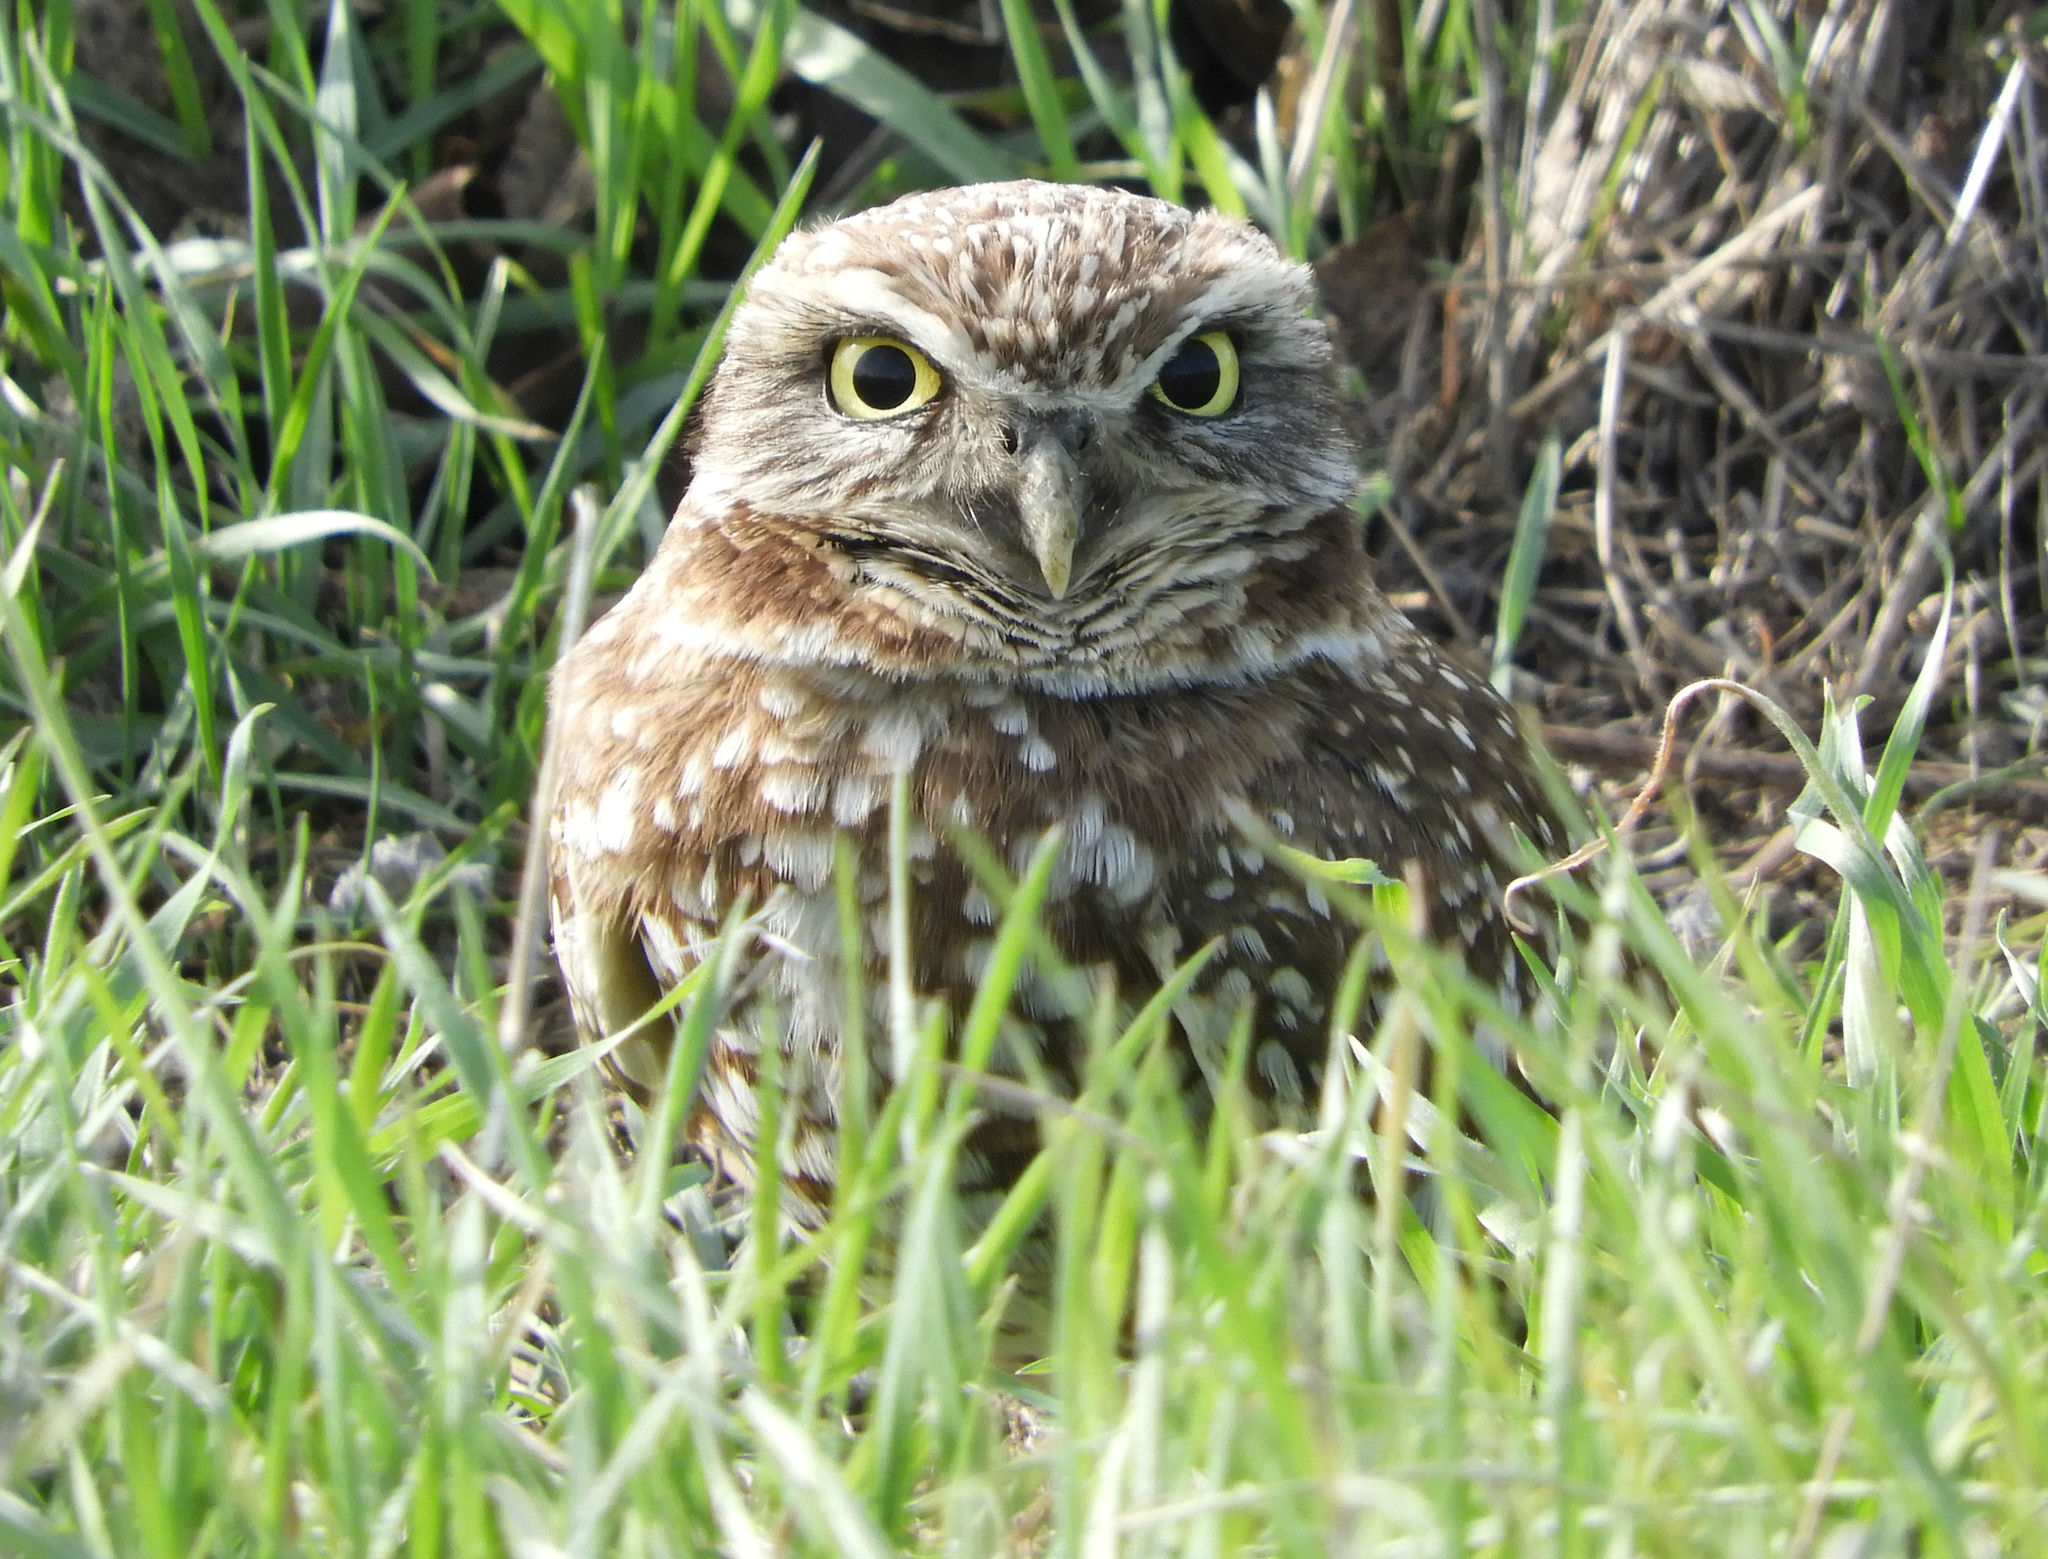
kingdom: Animalia
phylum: Chordata
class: Aves
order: Strigiformes
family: Strigidae
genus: Athene
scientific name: Athene cunicularia
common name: Burrowing owl
